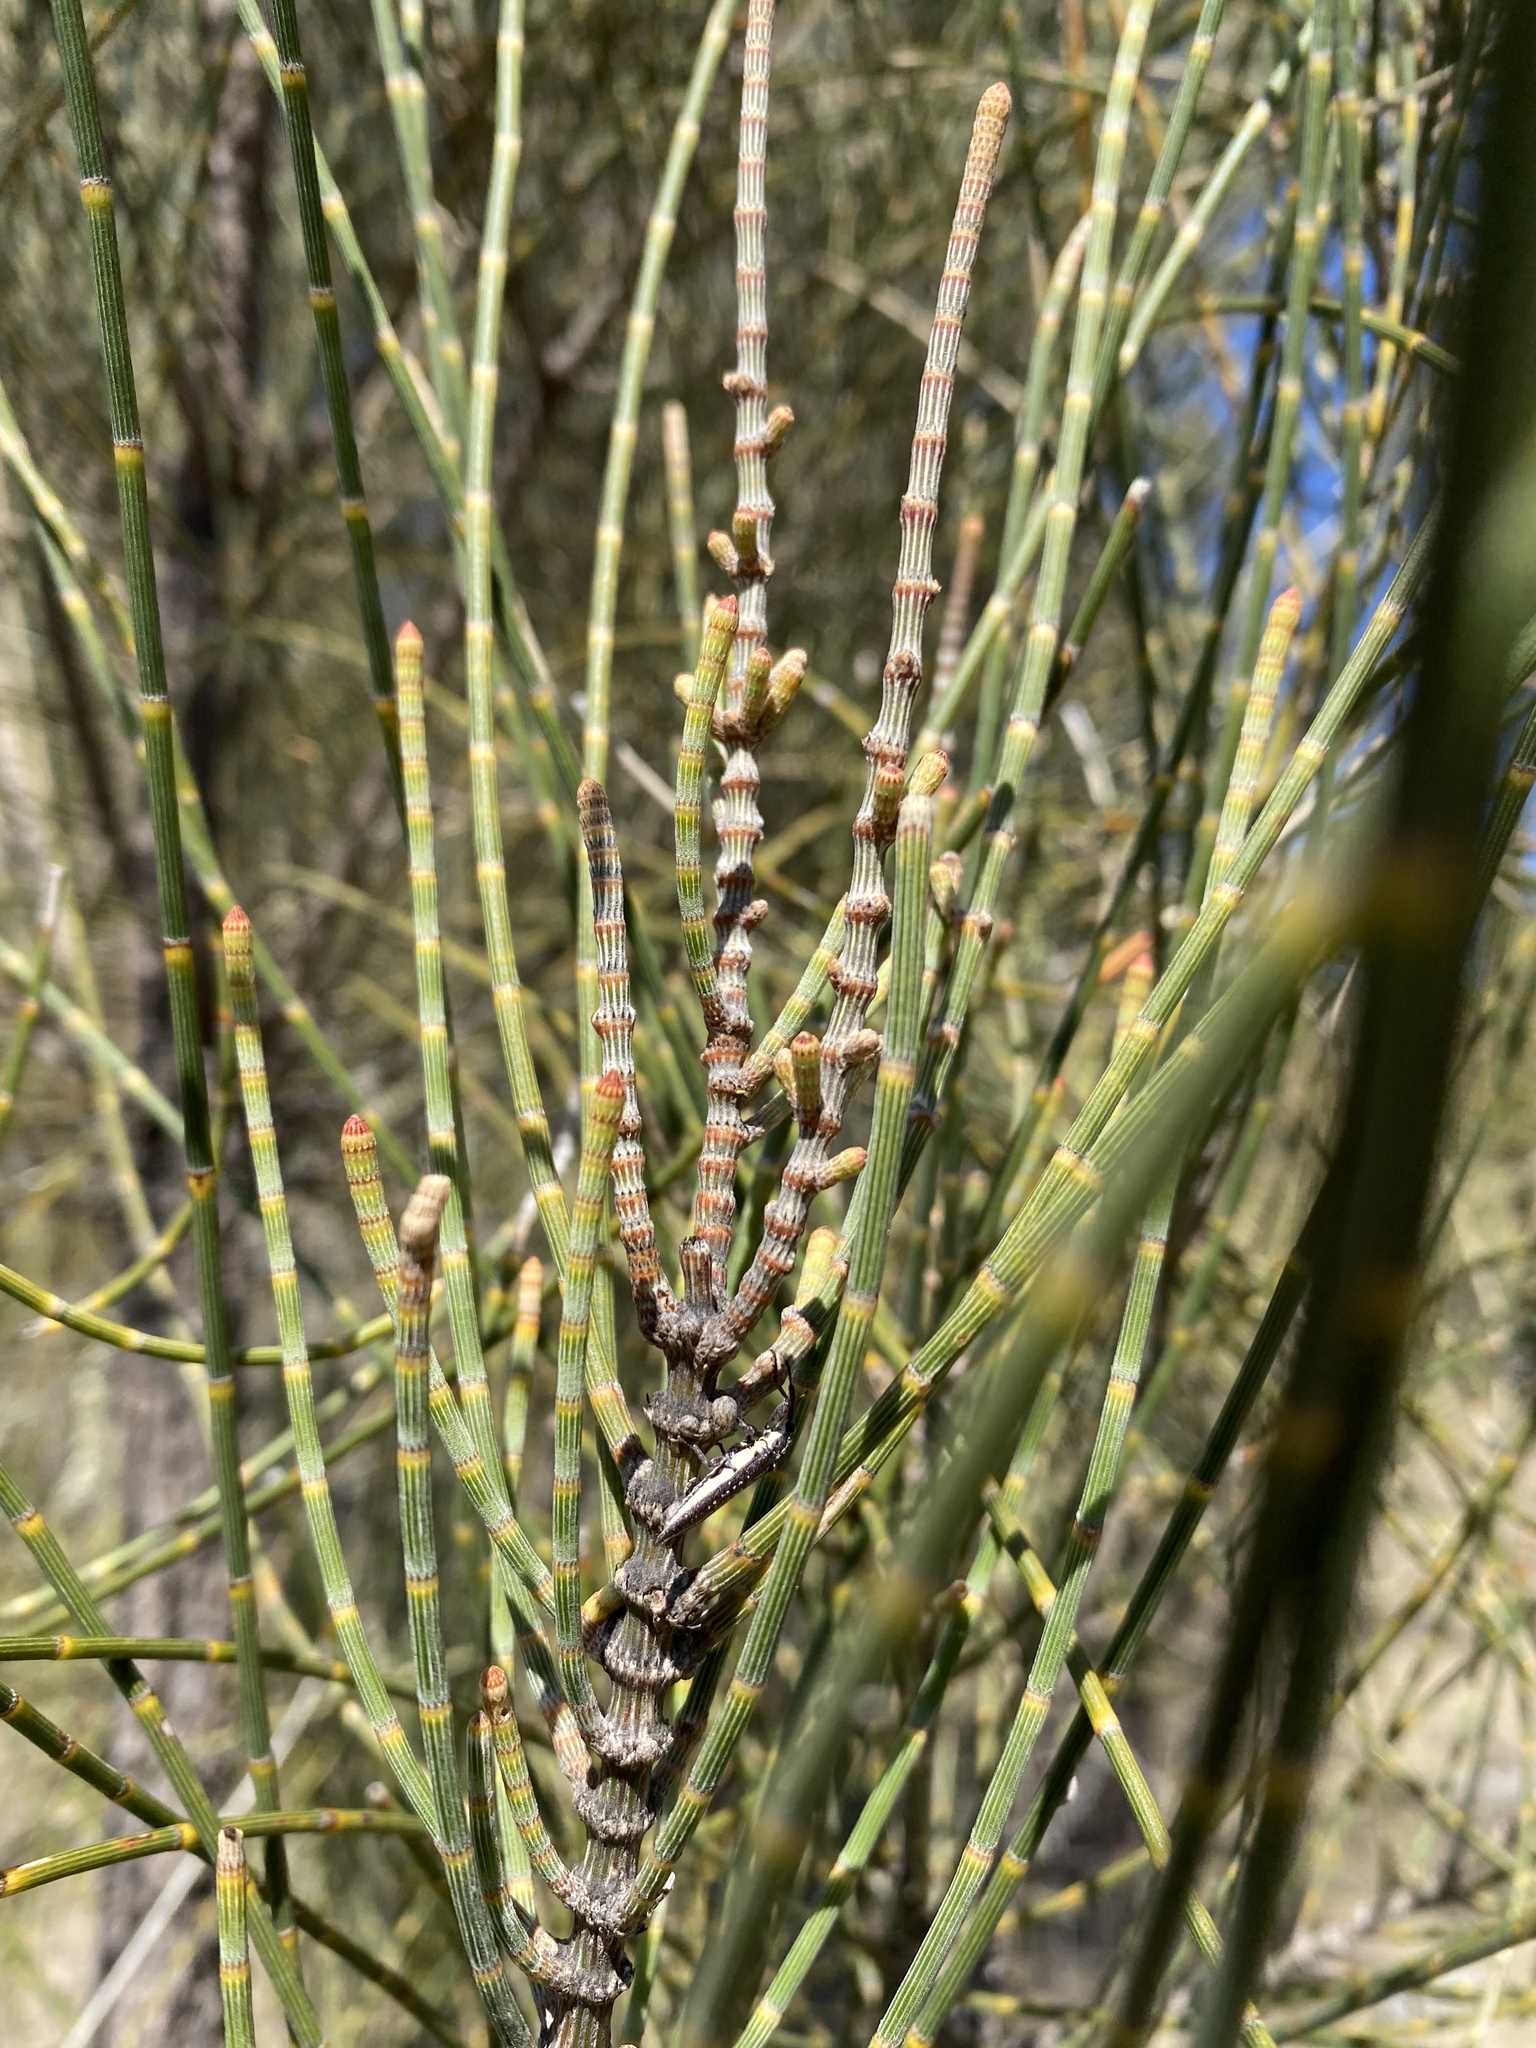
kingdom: Plantae
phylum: Tracheophyta
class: Magnoliopsida
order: Fagales
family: Casuarinaceae
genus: Allocasuarina
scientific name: Allocasuarina luehmannii
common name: Bull-oak
